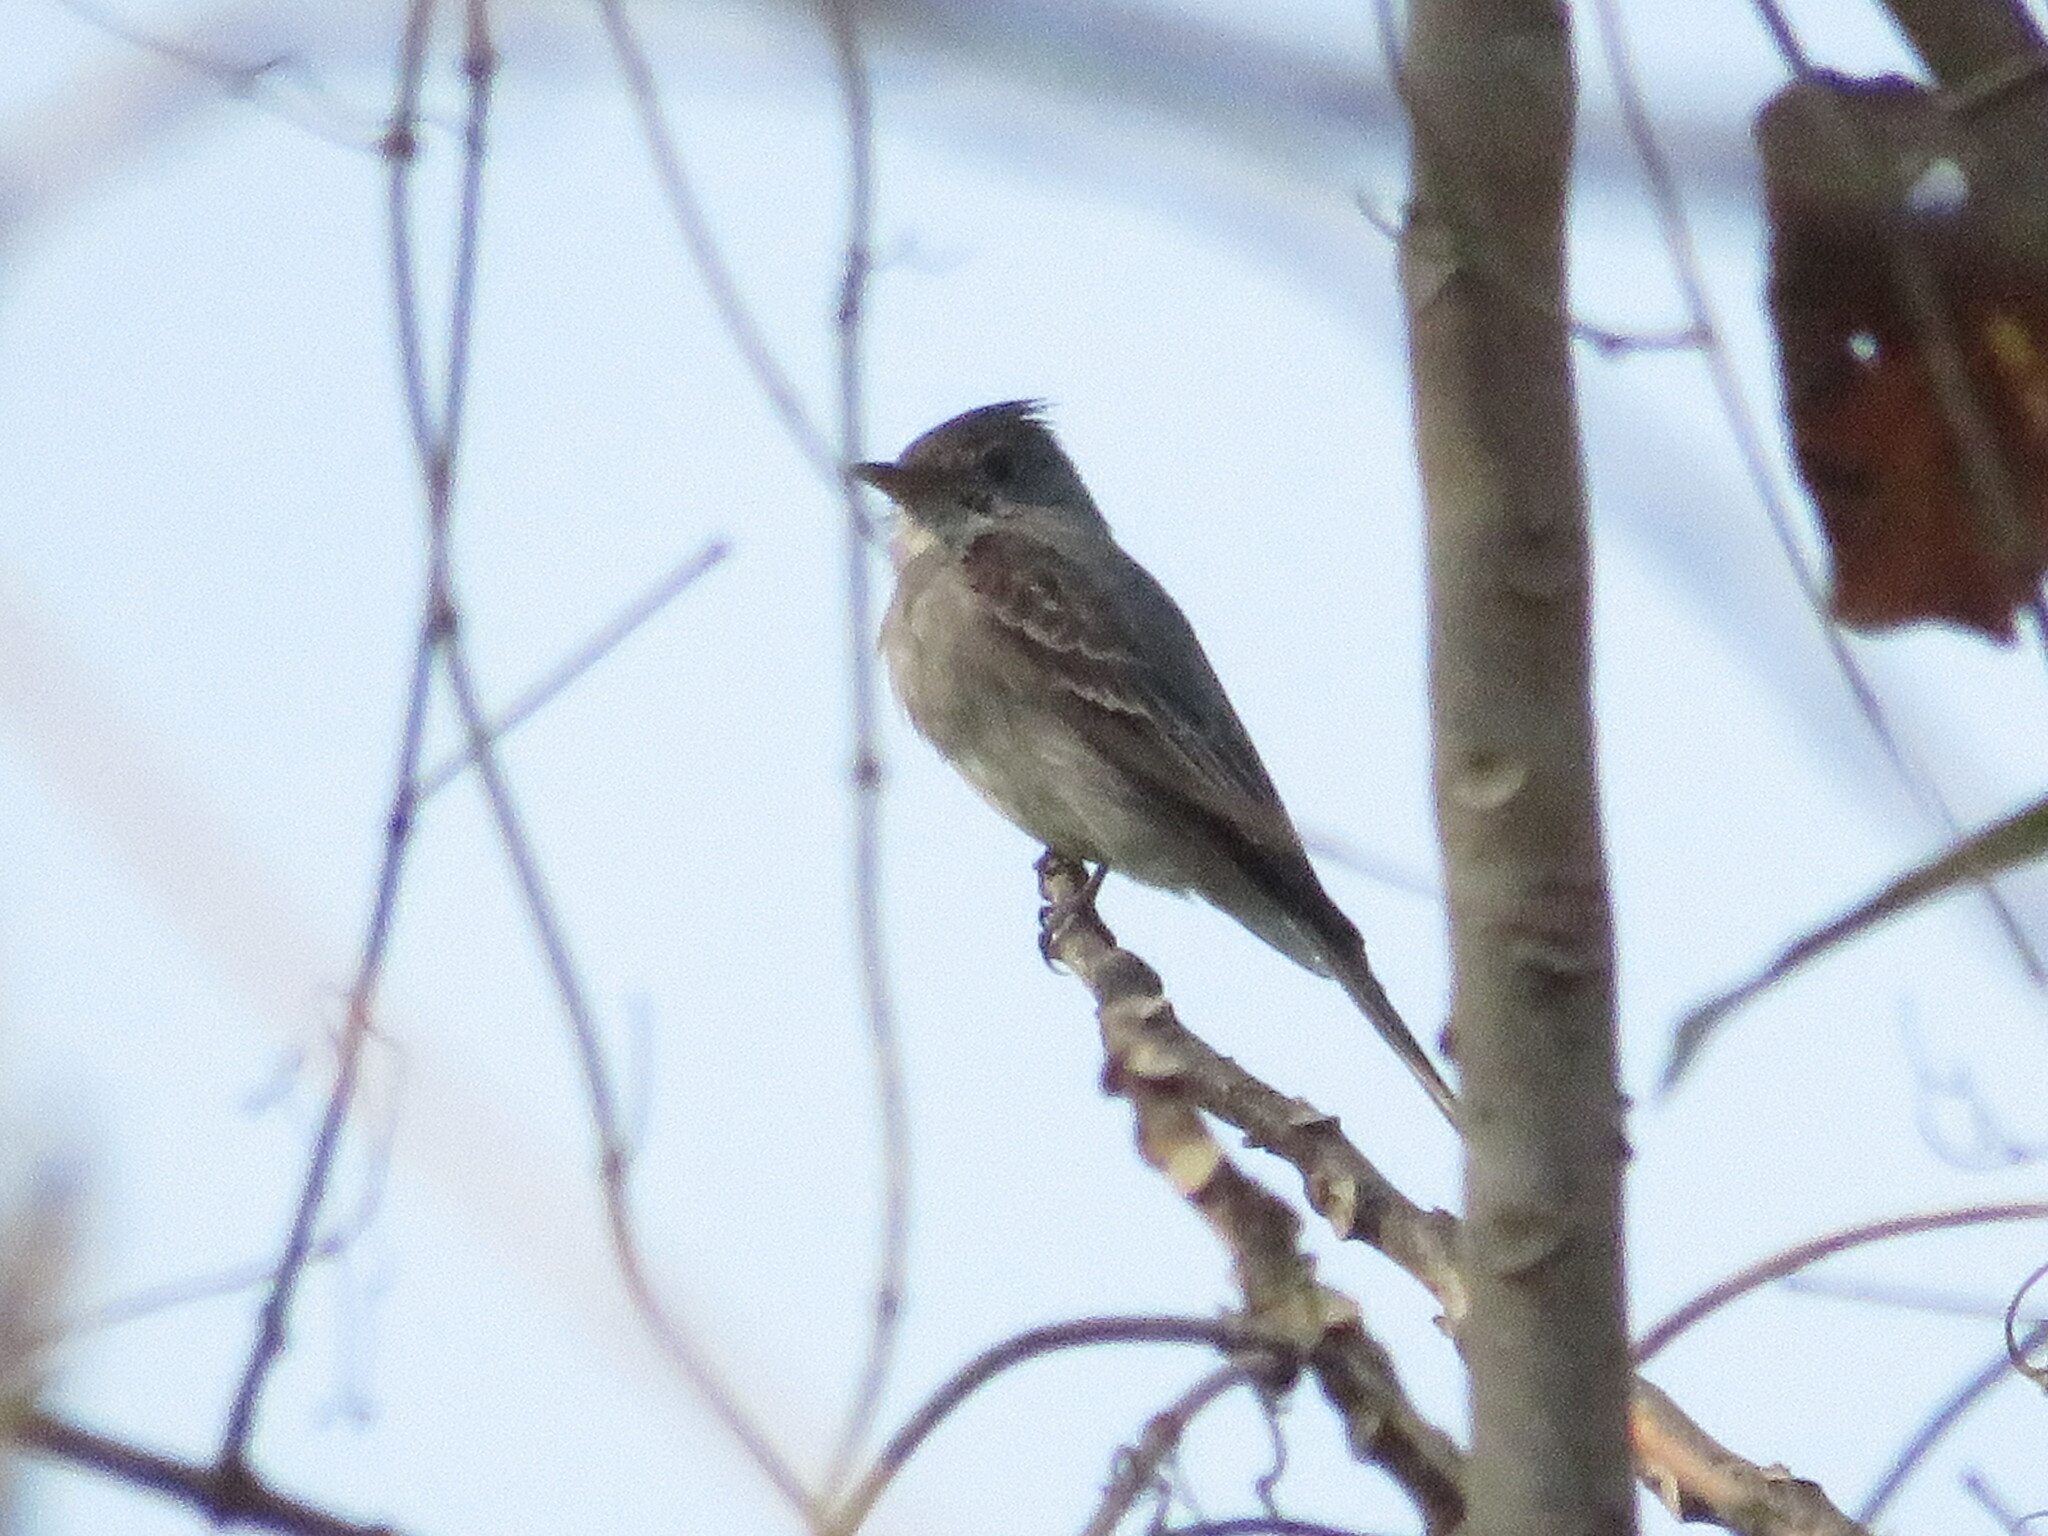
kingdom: Animalia
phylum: Chordata
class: Aves
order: Passeriformes
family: Tyrannidae
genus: Contopus
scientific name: Contopus fumigatus
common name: Smoke-colored pewee
